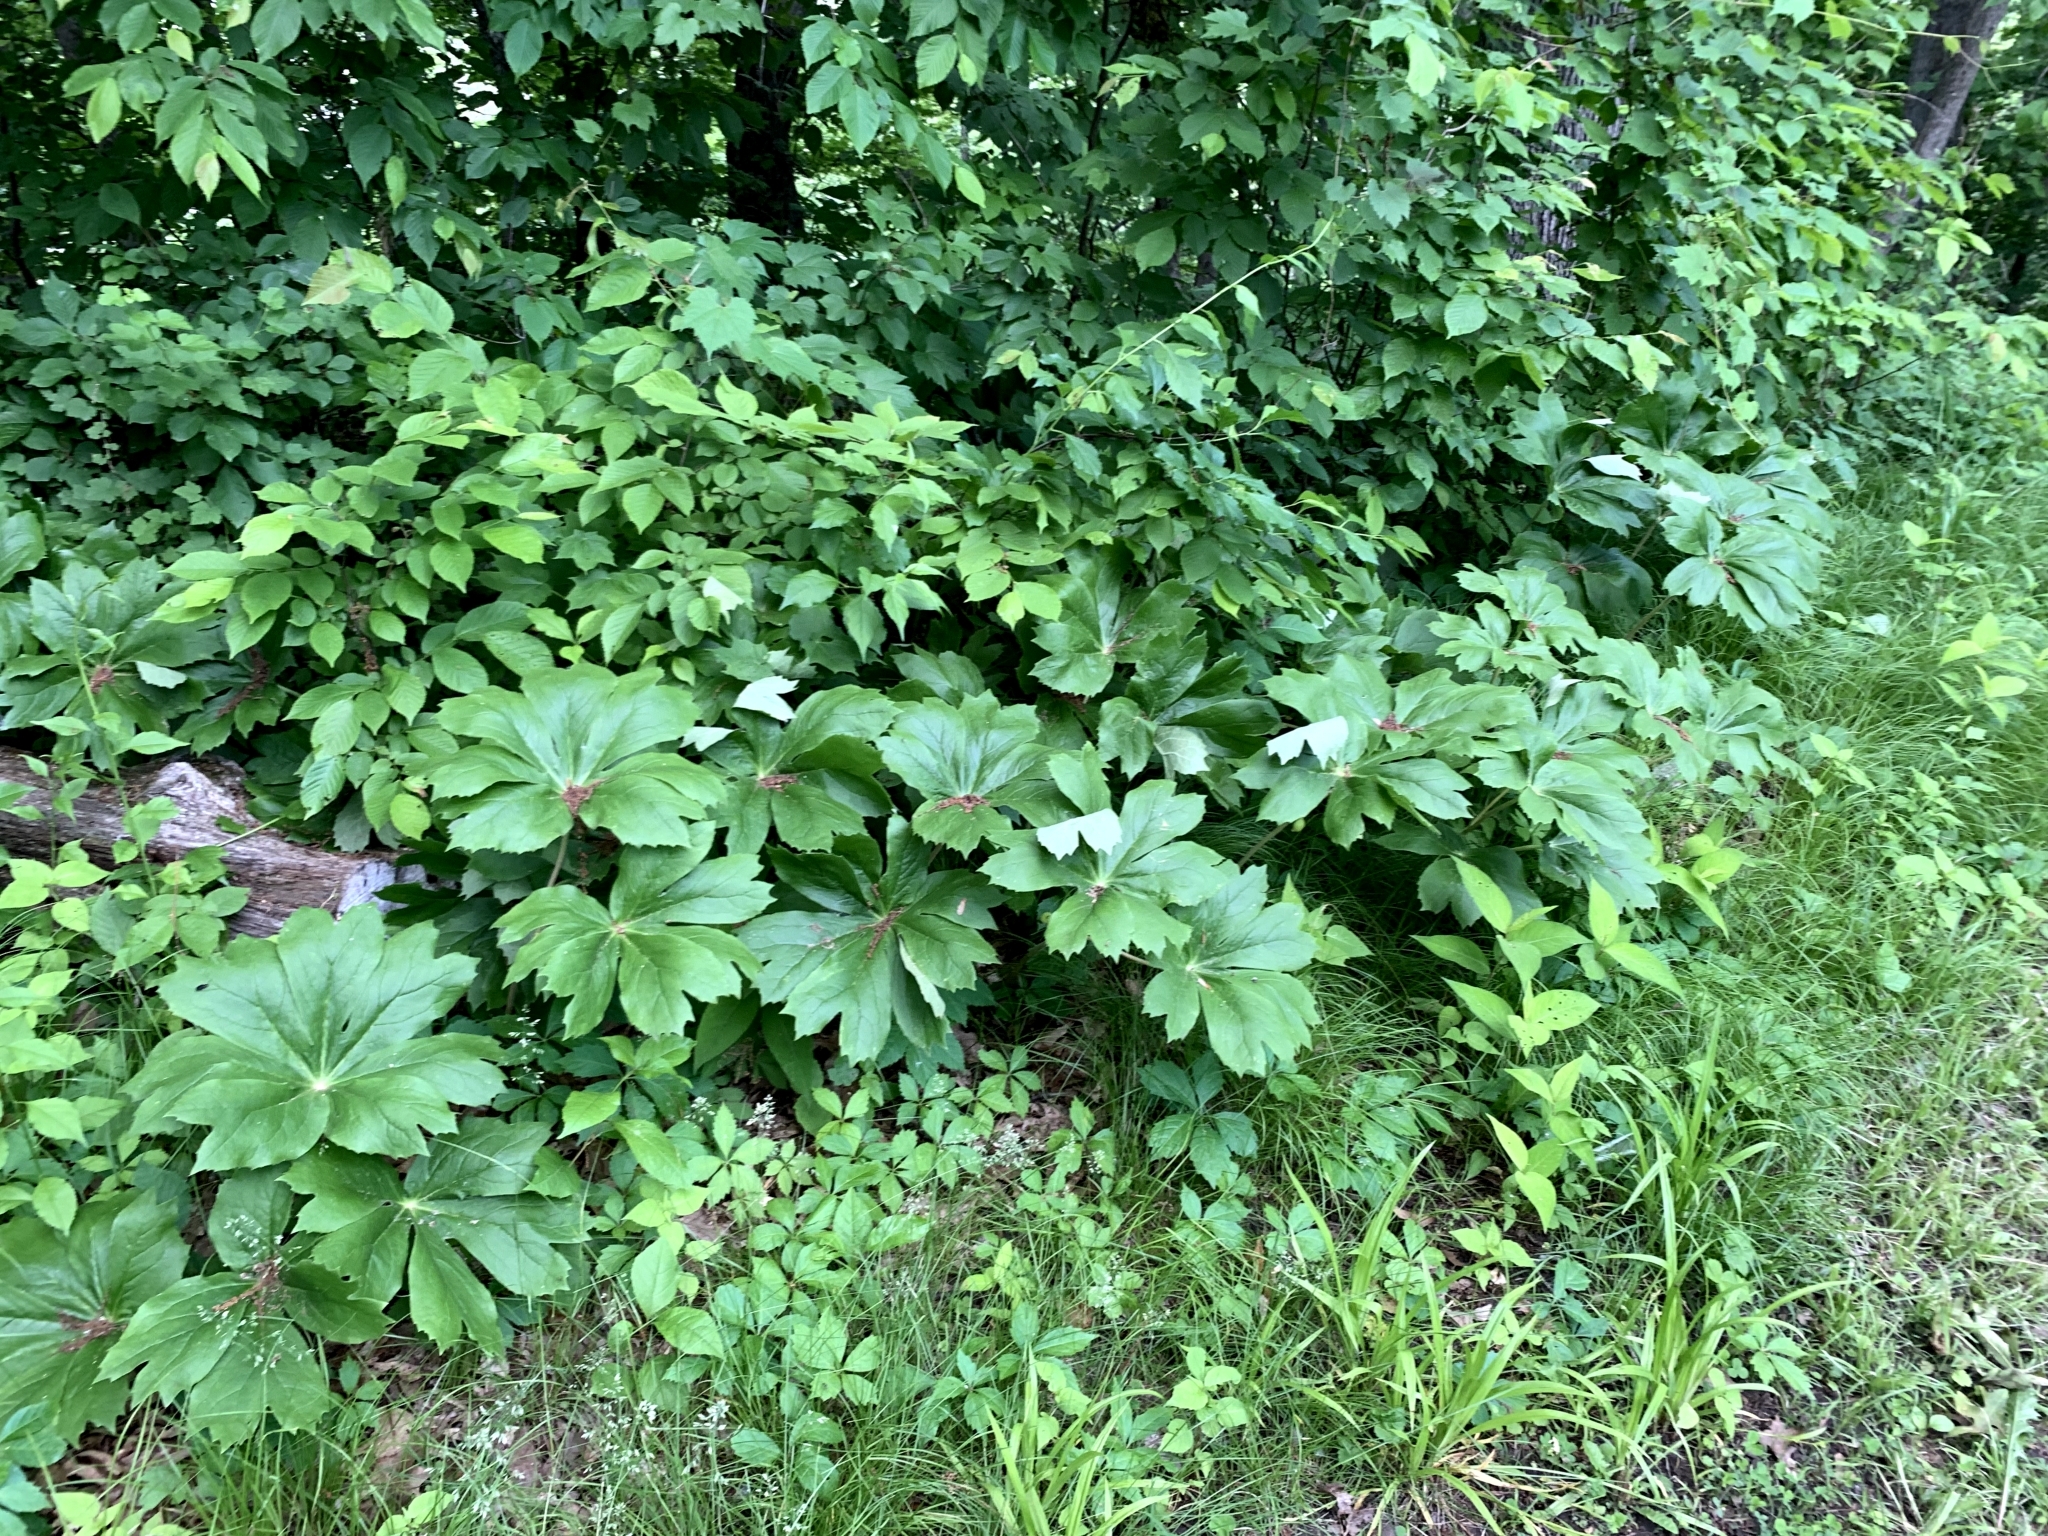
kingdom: Plantae
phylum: Tracheophyta
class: Magnoliopsida
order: Ranunculales
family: Berberidaceae
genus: Podophyllum
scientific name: Podophyllum peltatum
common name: Wild mandrake
